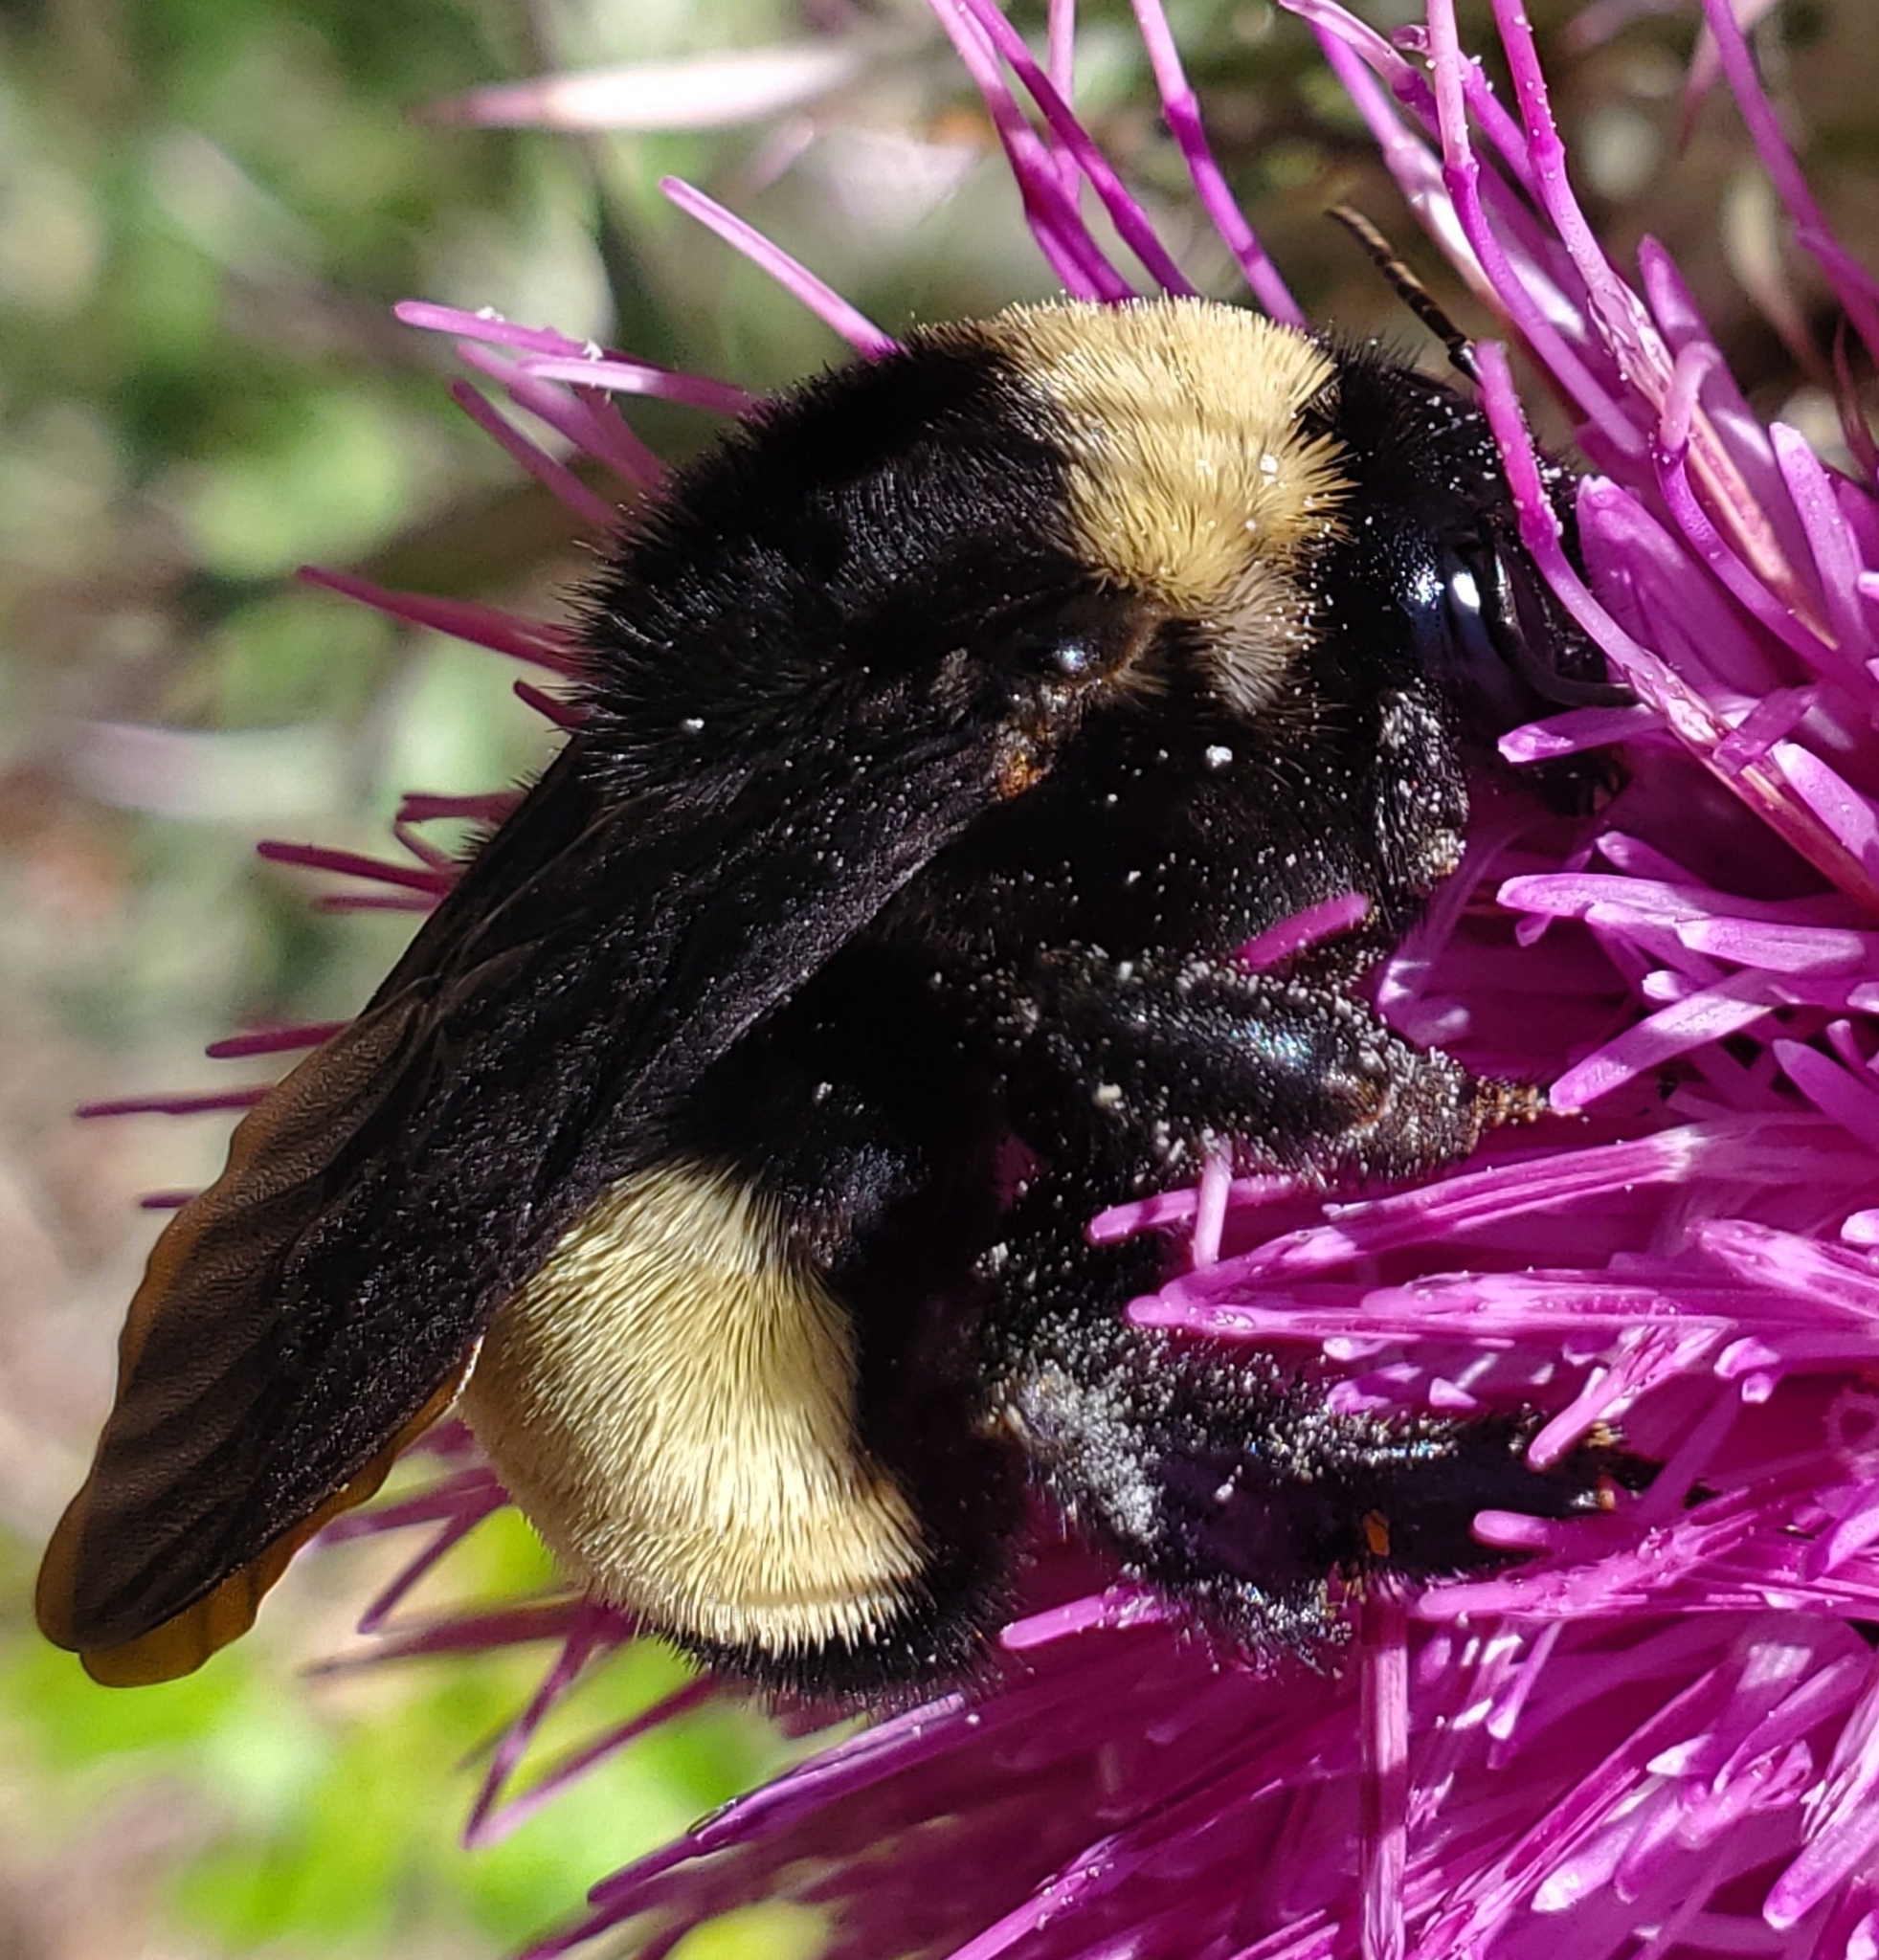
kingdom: Animalia
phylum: Arthropoda
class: Insecta
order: Hymenoptera
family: Apidae
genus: Bombus
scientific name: Bombus pensylvanicus
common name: Bumble bee
